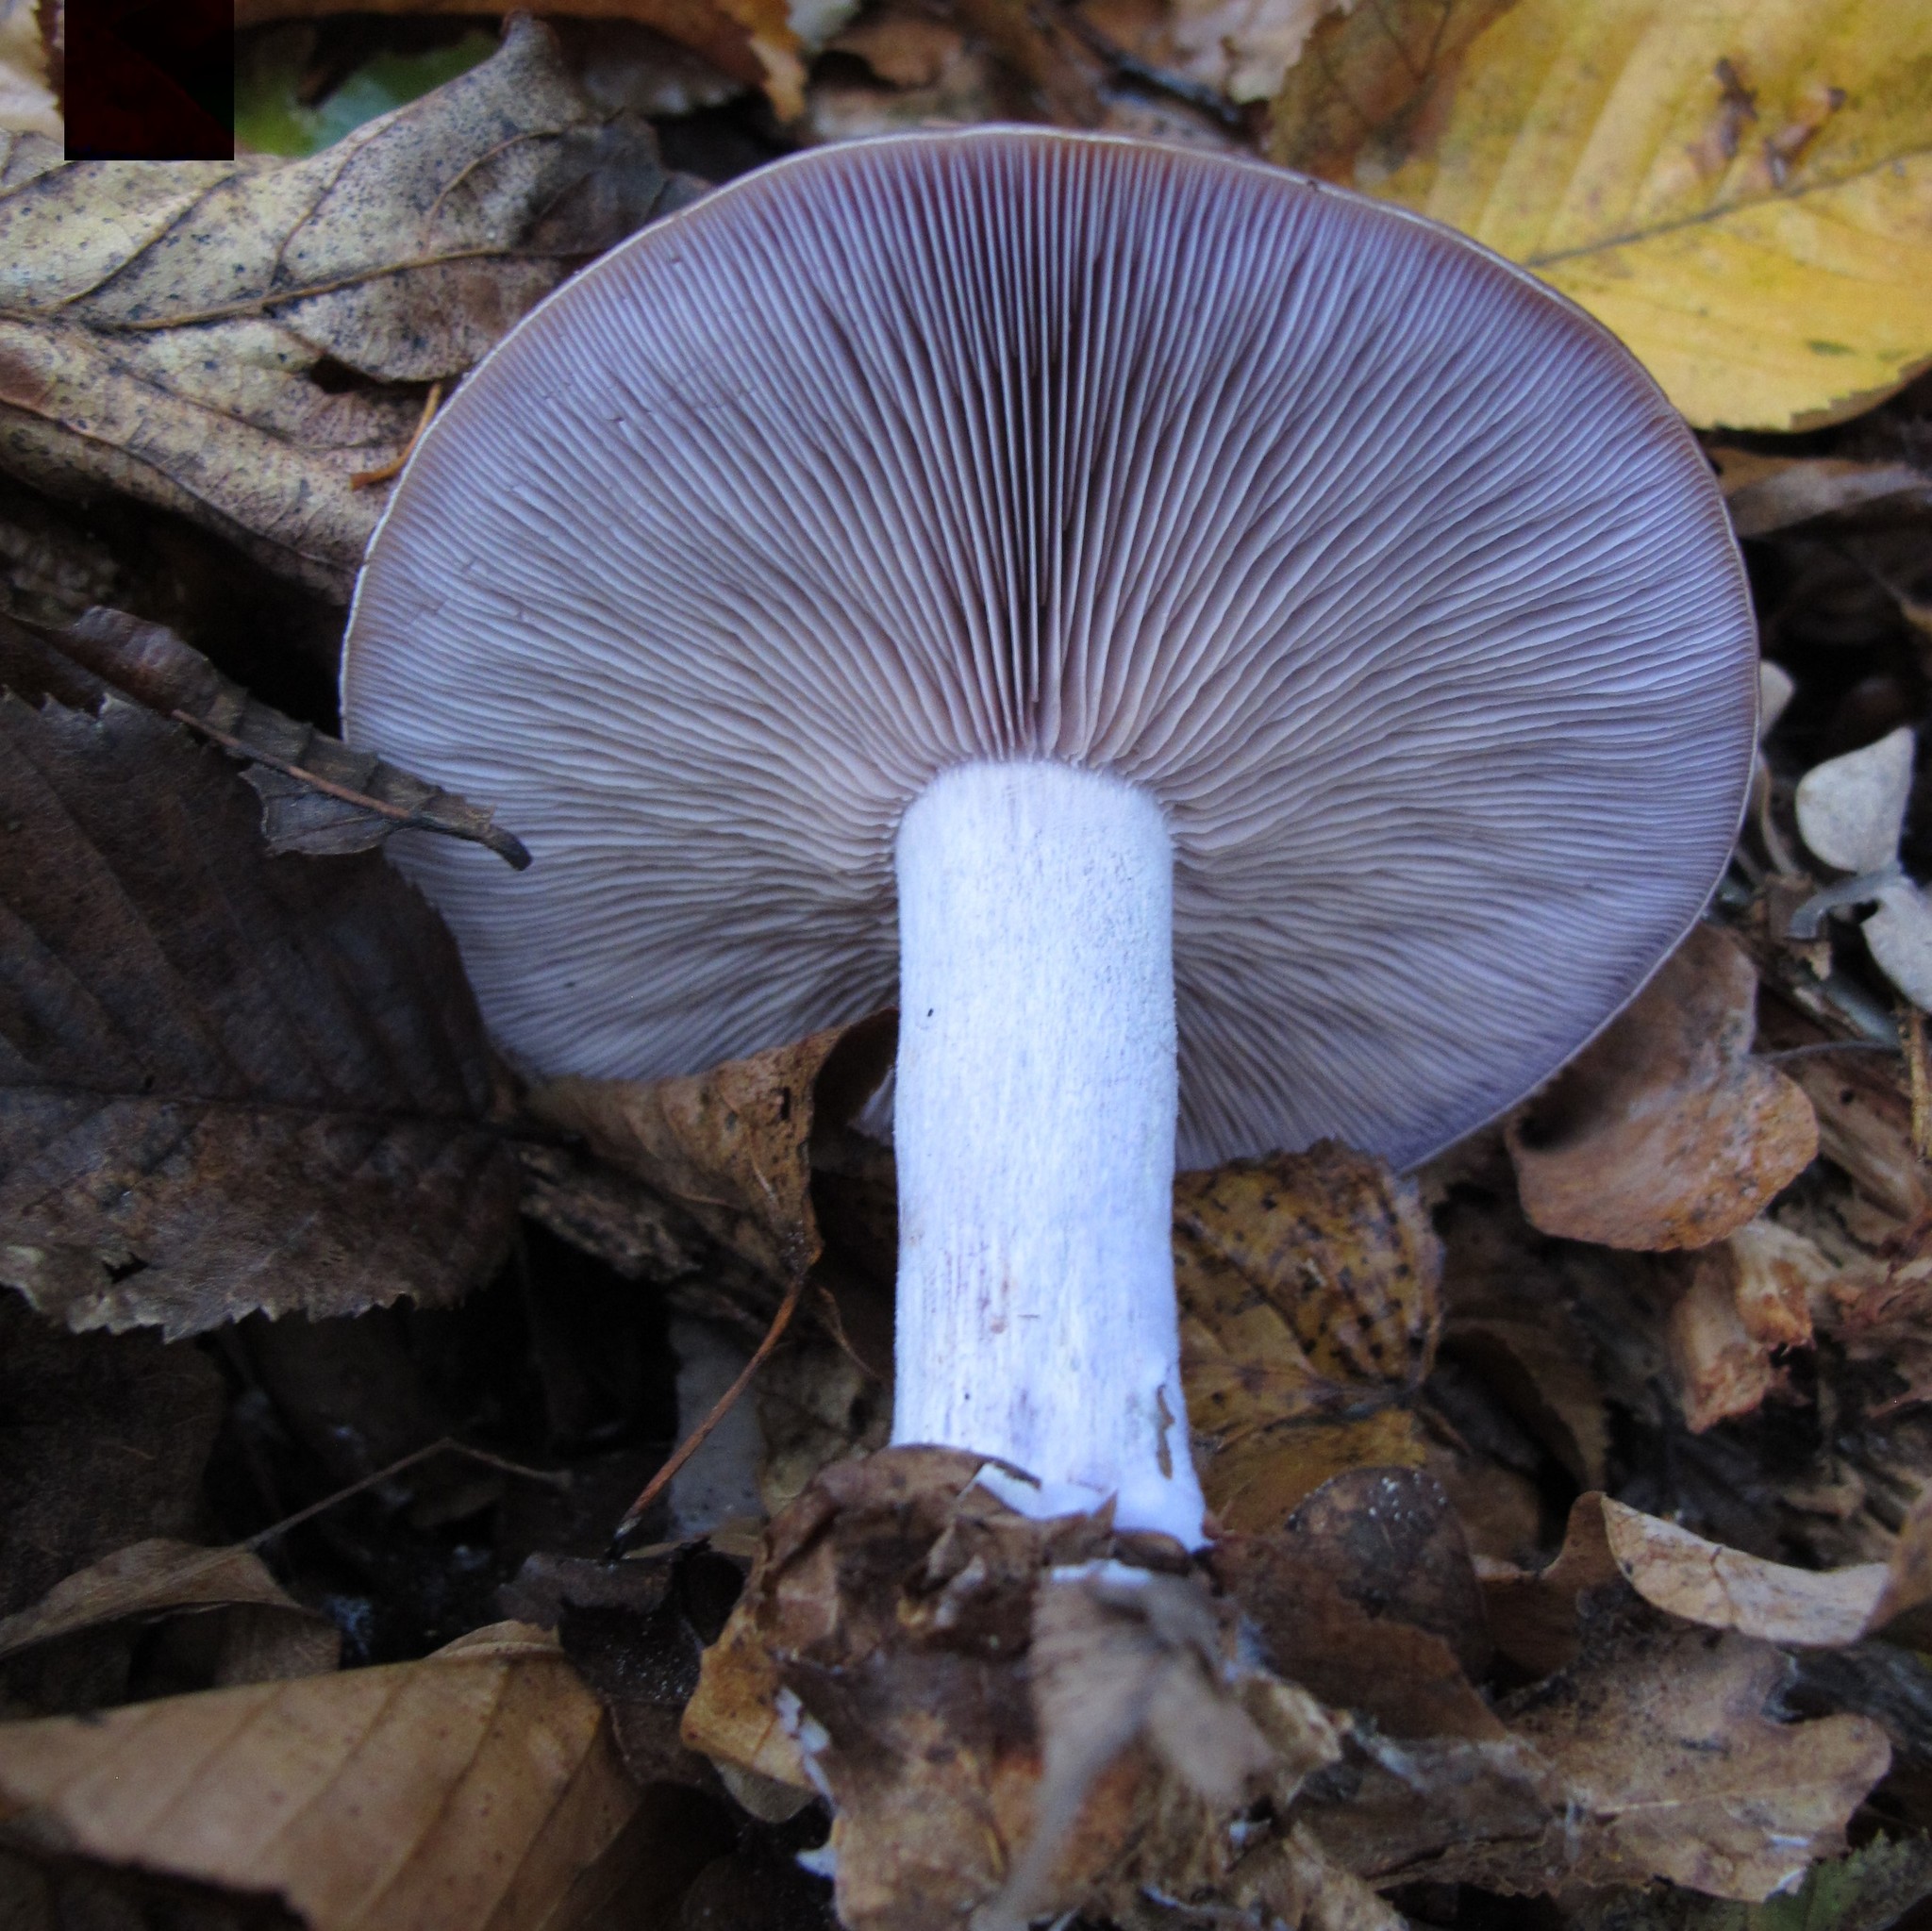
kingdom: Fungi
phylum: Basidiomycota
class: Agaricomycetes
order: Agaricales
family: Tricholomataceae
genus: Collybia
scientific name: Collybia
